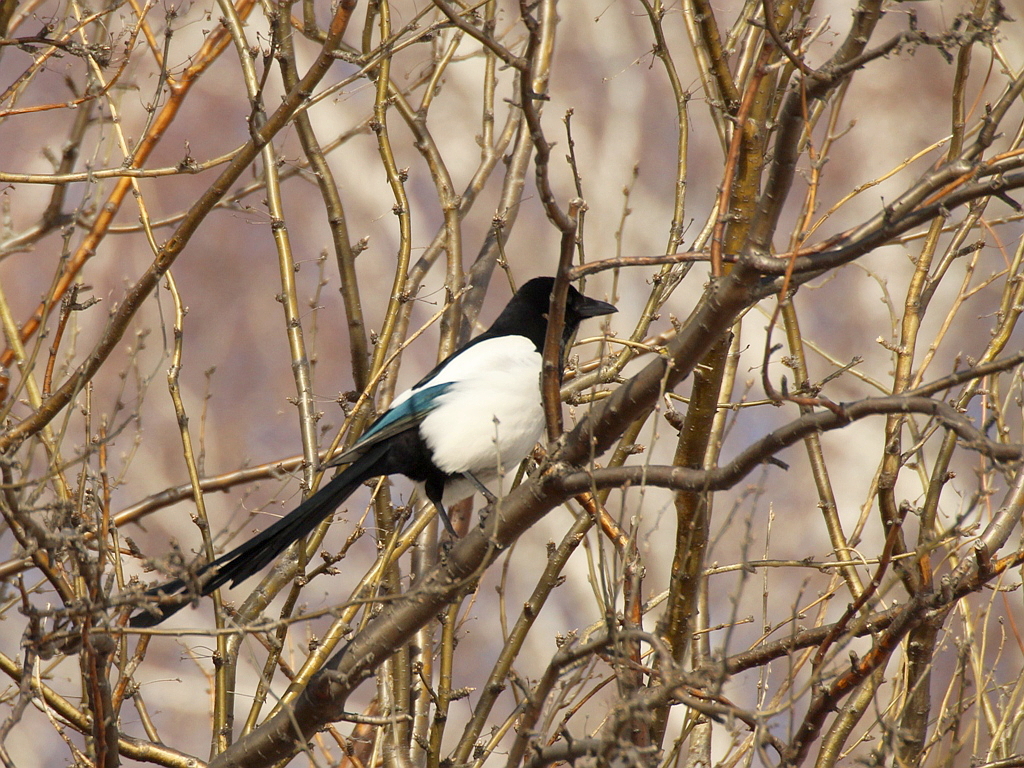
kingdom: Animalia
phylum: Chordata
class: Aves
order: Passeriformes
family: Corvidae
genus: Pica
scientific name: Pica pica
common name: Eurasian magpie
